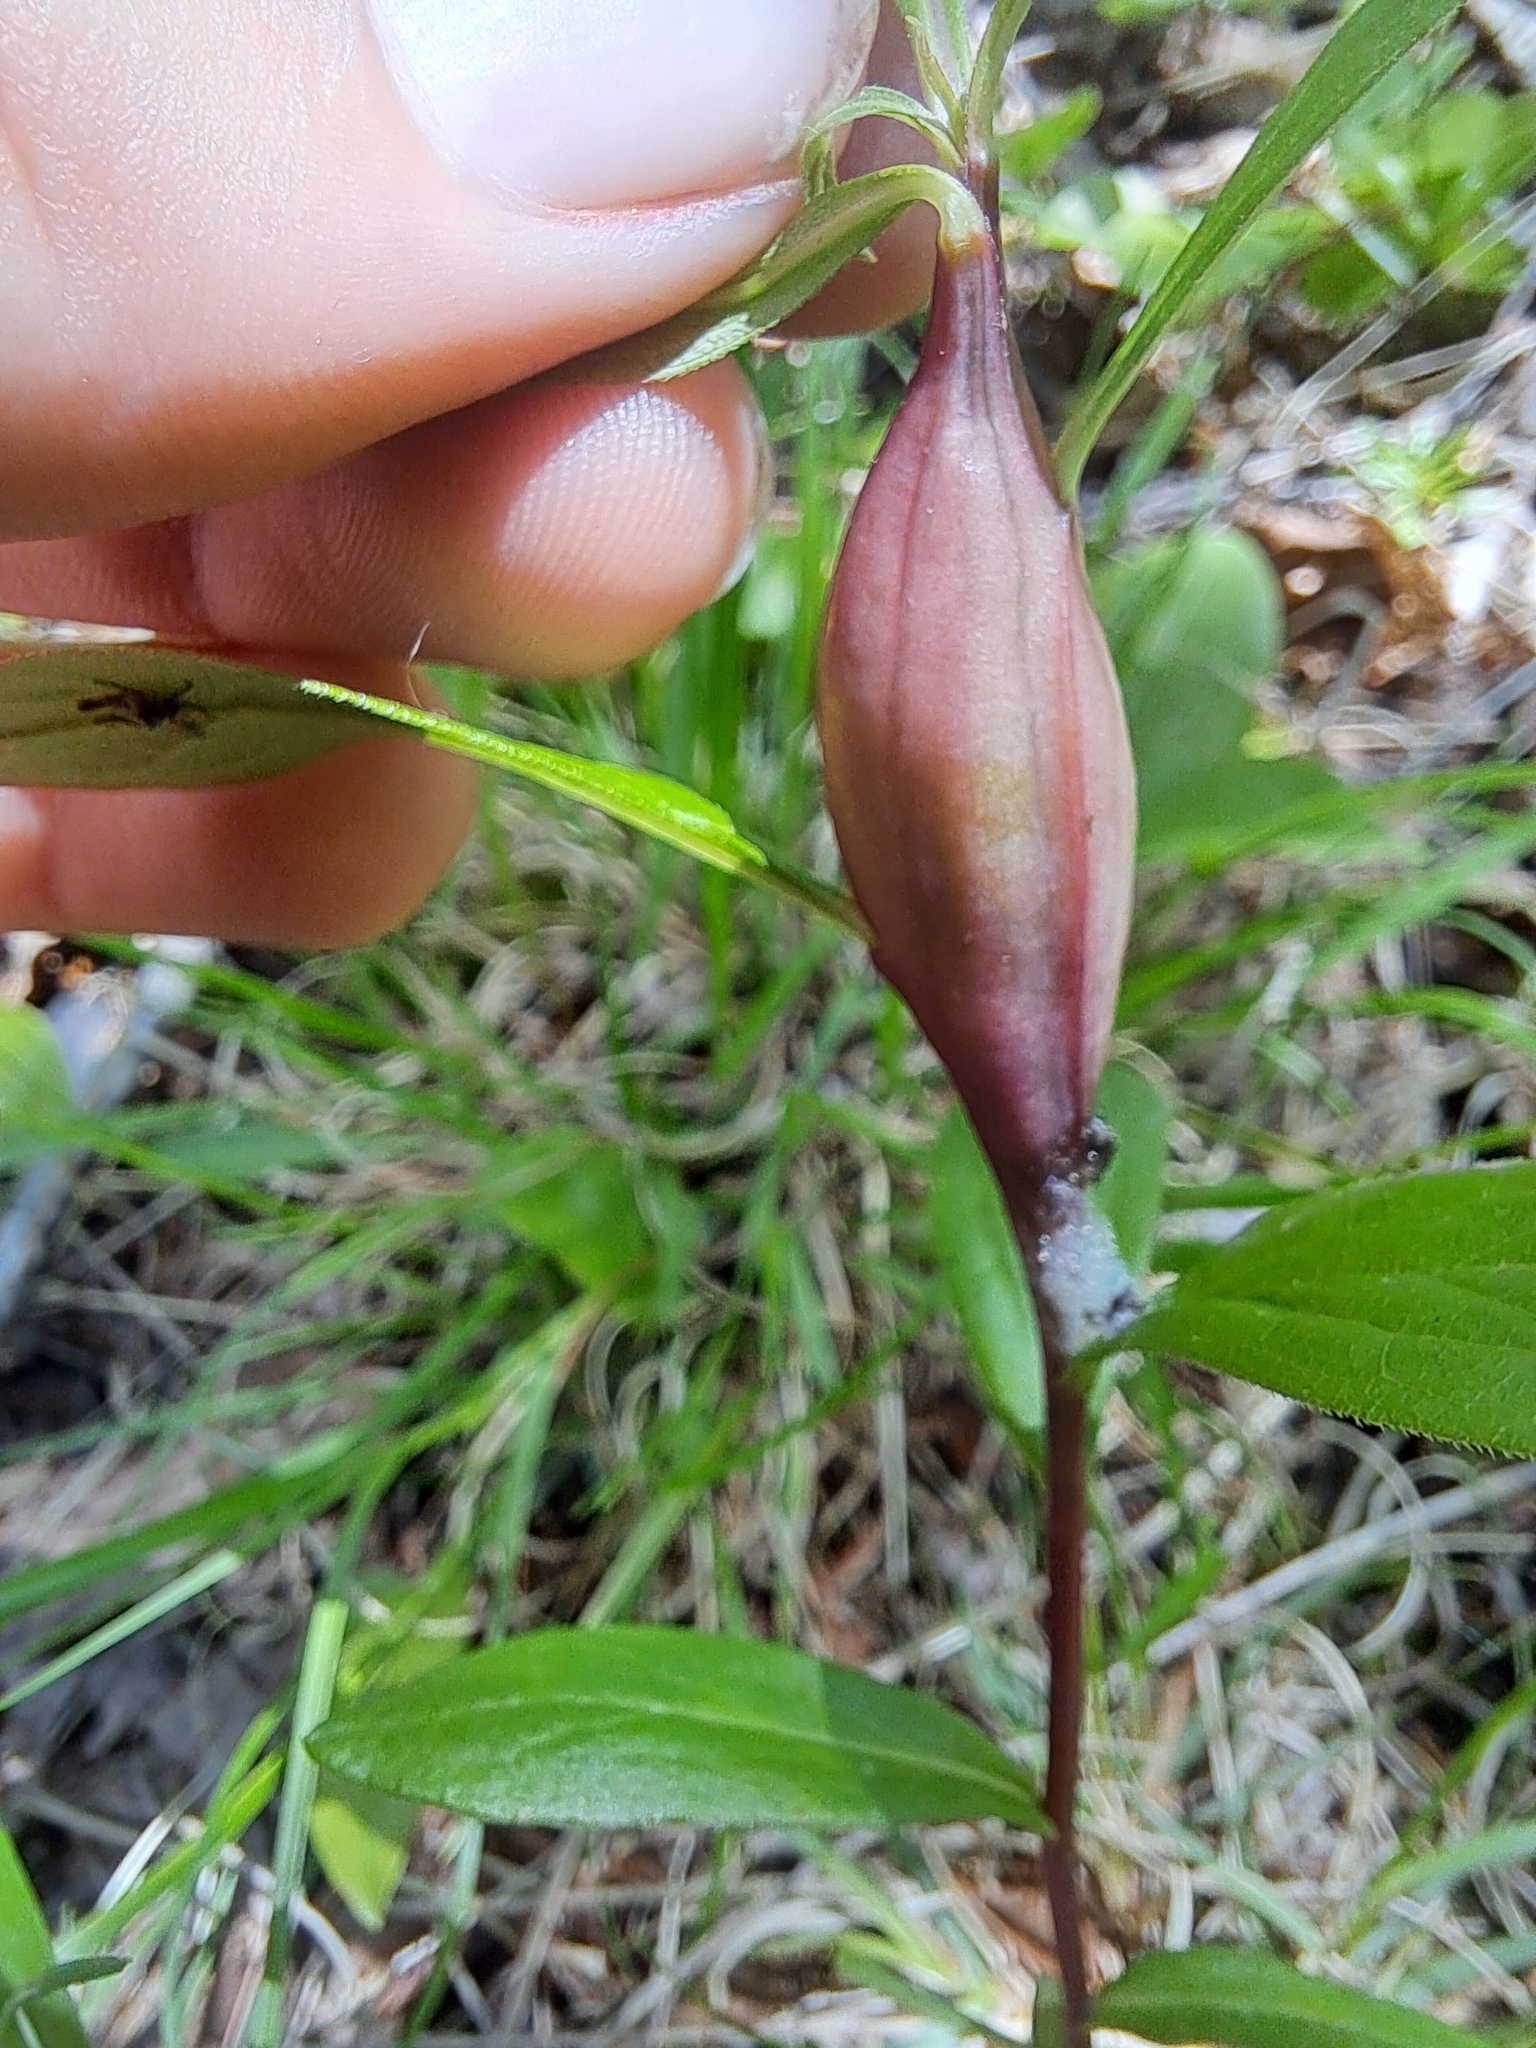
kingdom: Animalia
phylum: Arthropoda
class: Insecta
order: Lepidoptera
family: Gelechiidae
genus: Gnorimoschema
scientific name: Gnorimoschema gallaesolidaginis
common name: Goldenrod elliptical-gall moth
